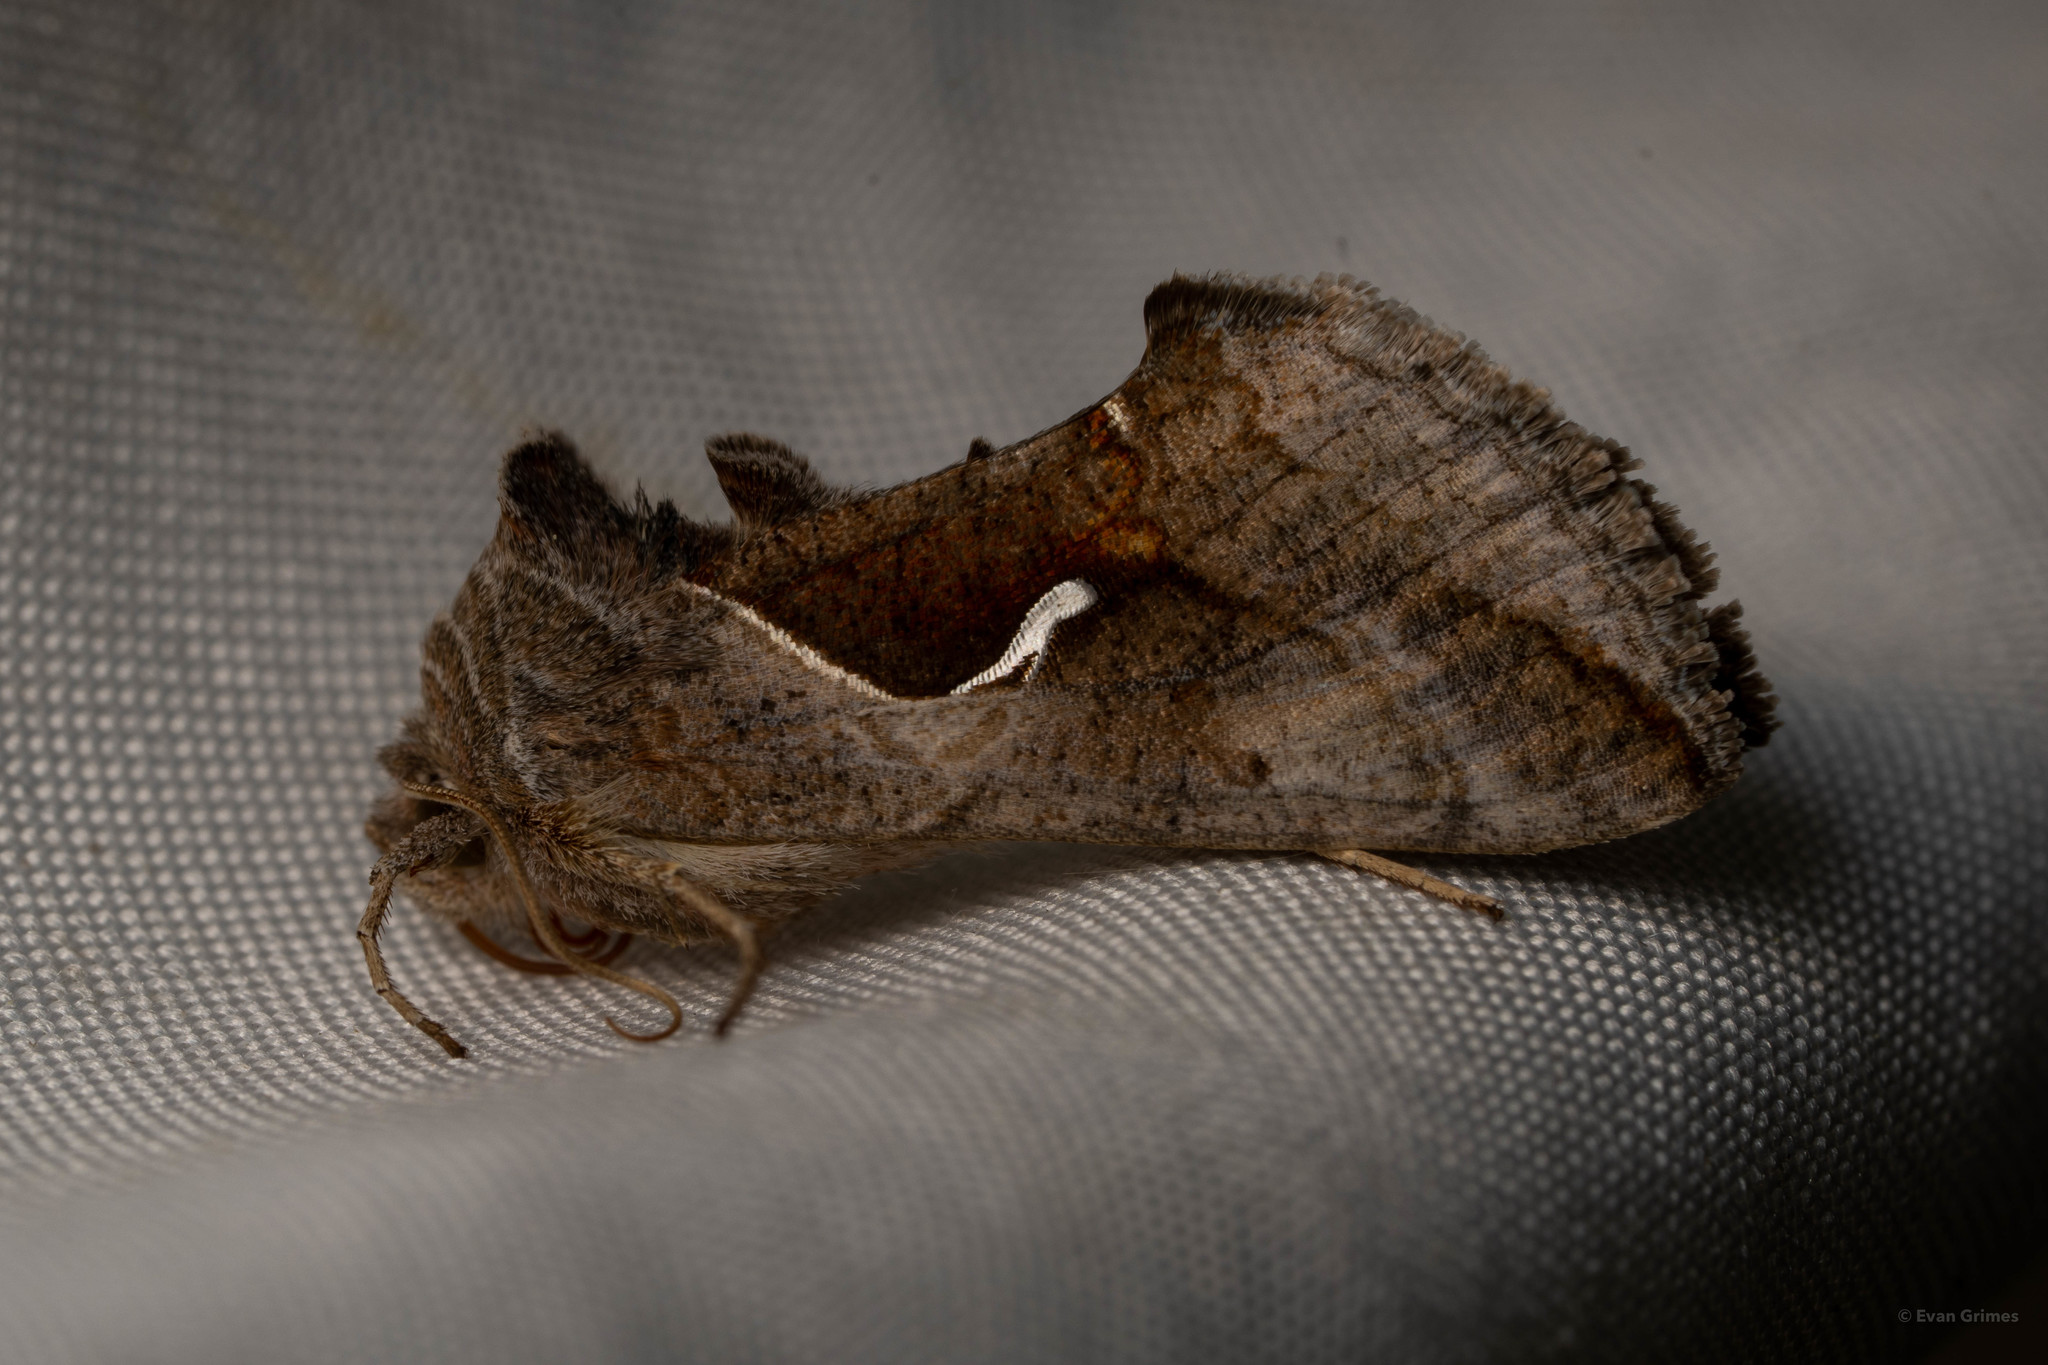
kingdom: Animalia
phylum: Arthropoda
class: Insecta
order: Lepidoptera
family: Noctuidae
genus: Anagrapha
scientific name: Anagrapha falcifera
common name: Celery looper
